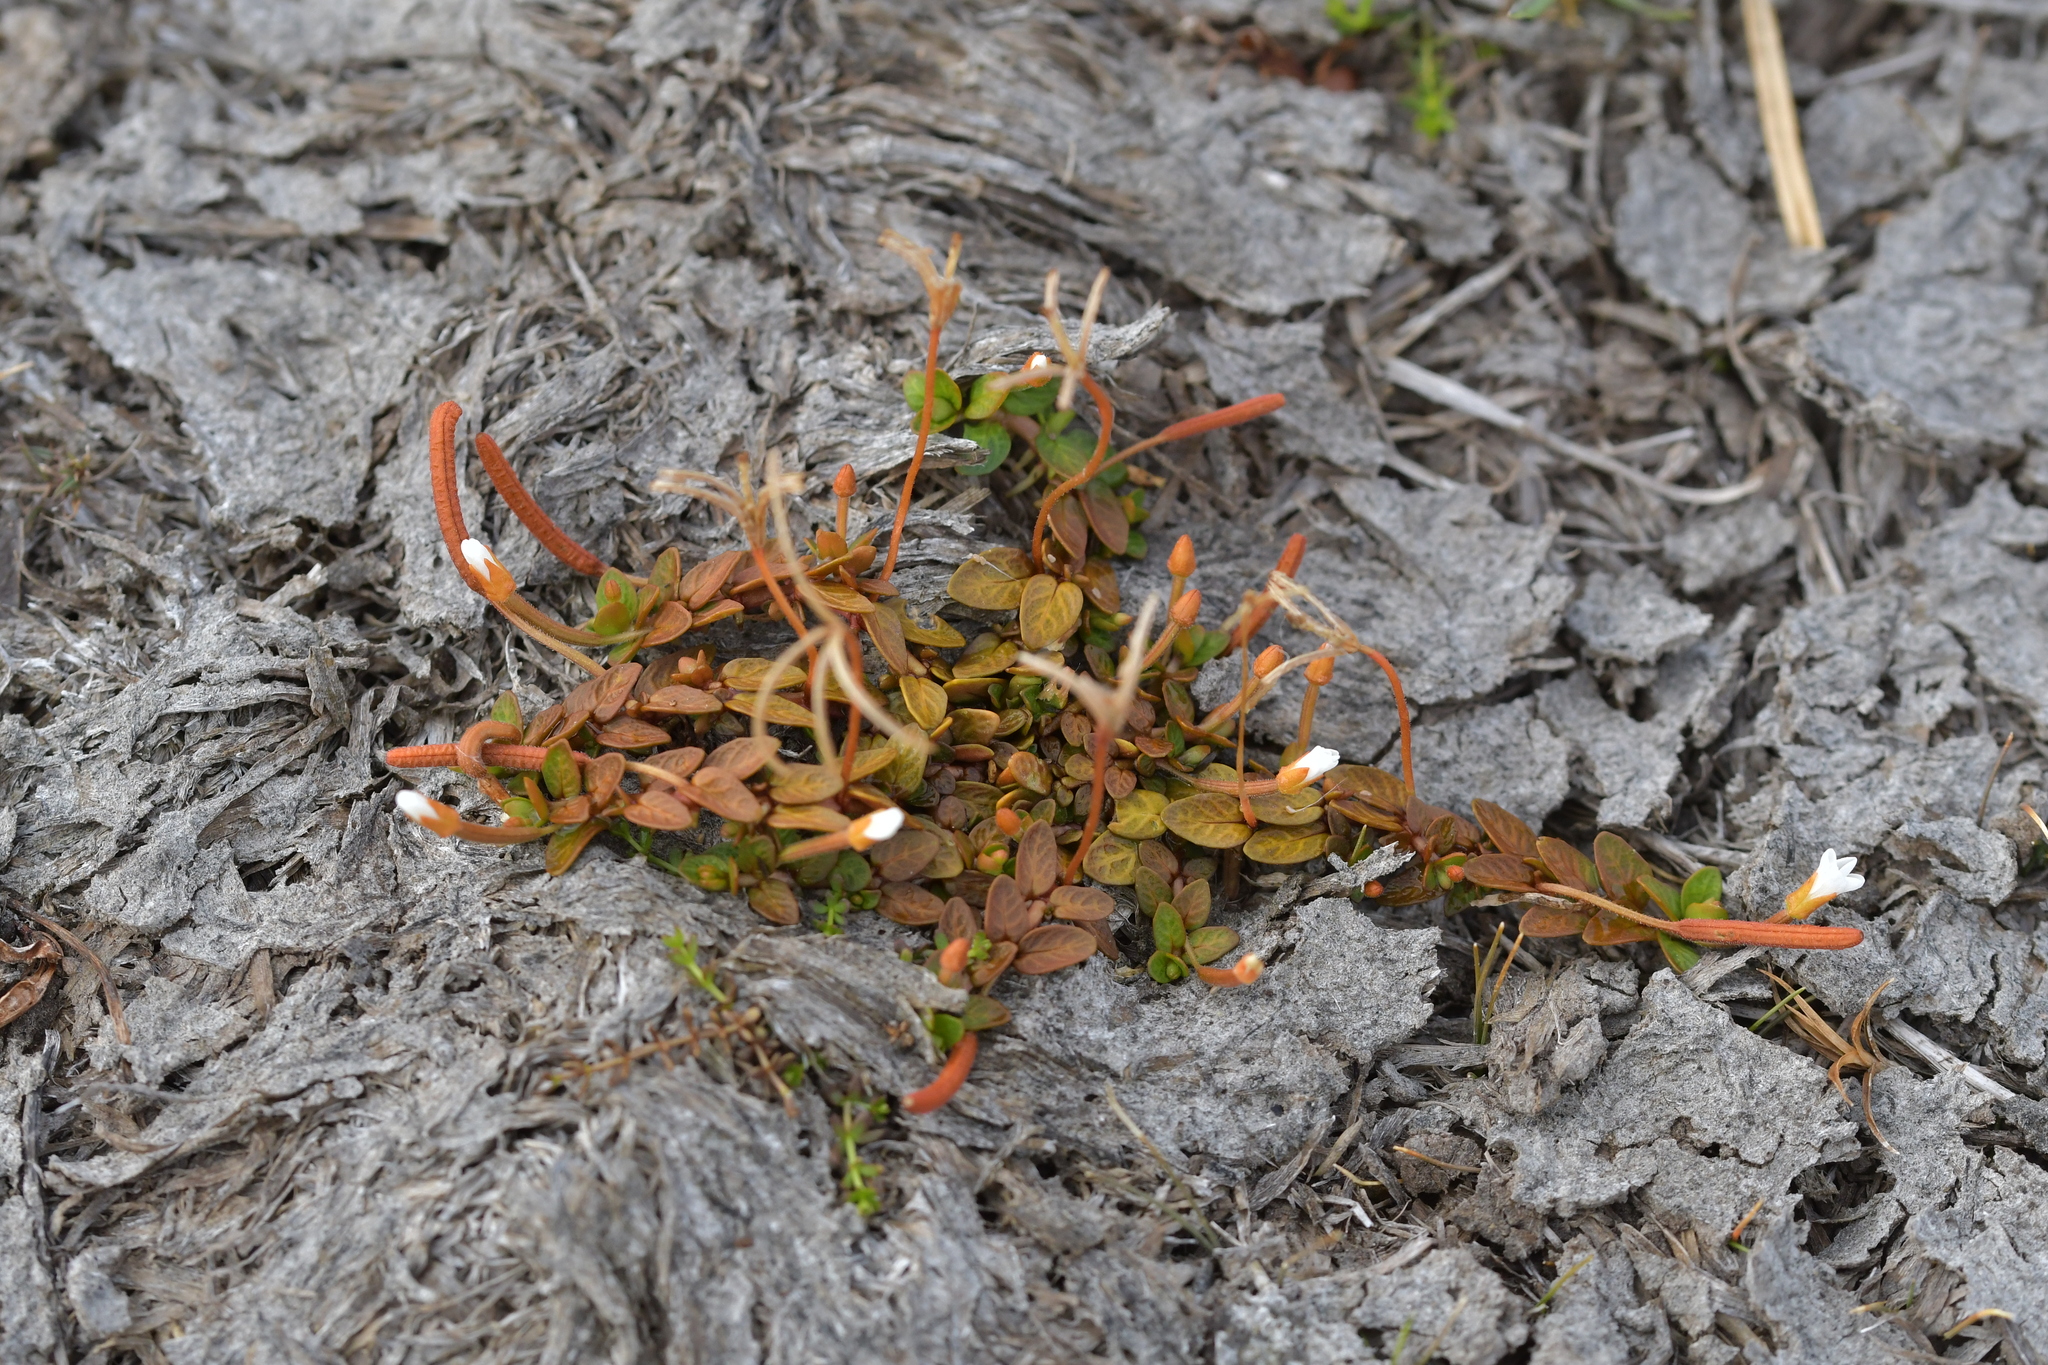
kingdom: Plantae
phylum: Tracheophyta
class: Magnoliopsida
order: Myrtales
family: Onagraceae
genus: Epilobium
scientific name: Epilobium angustum
